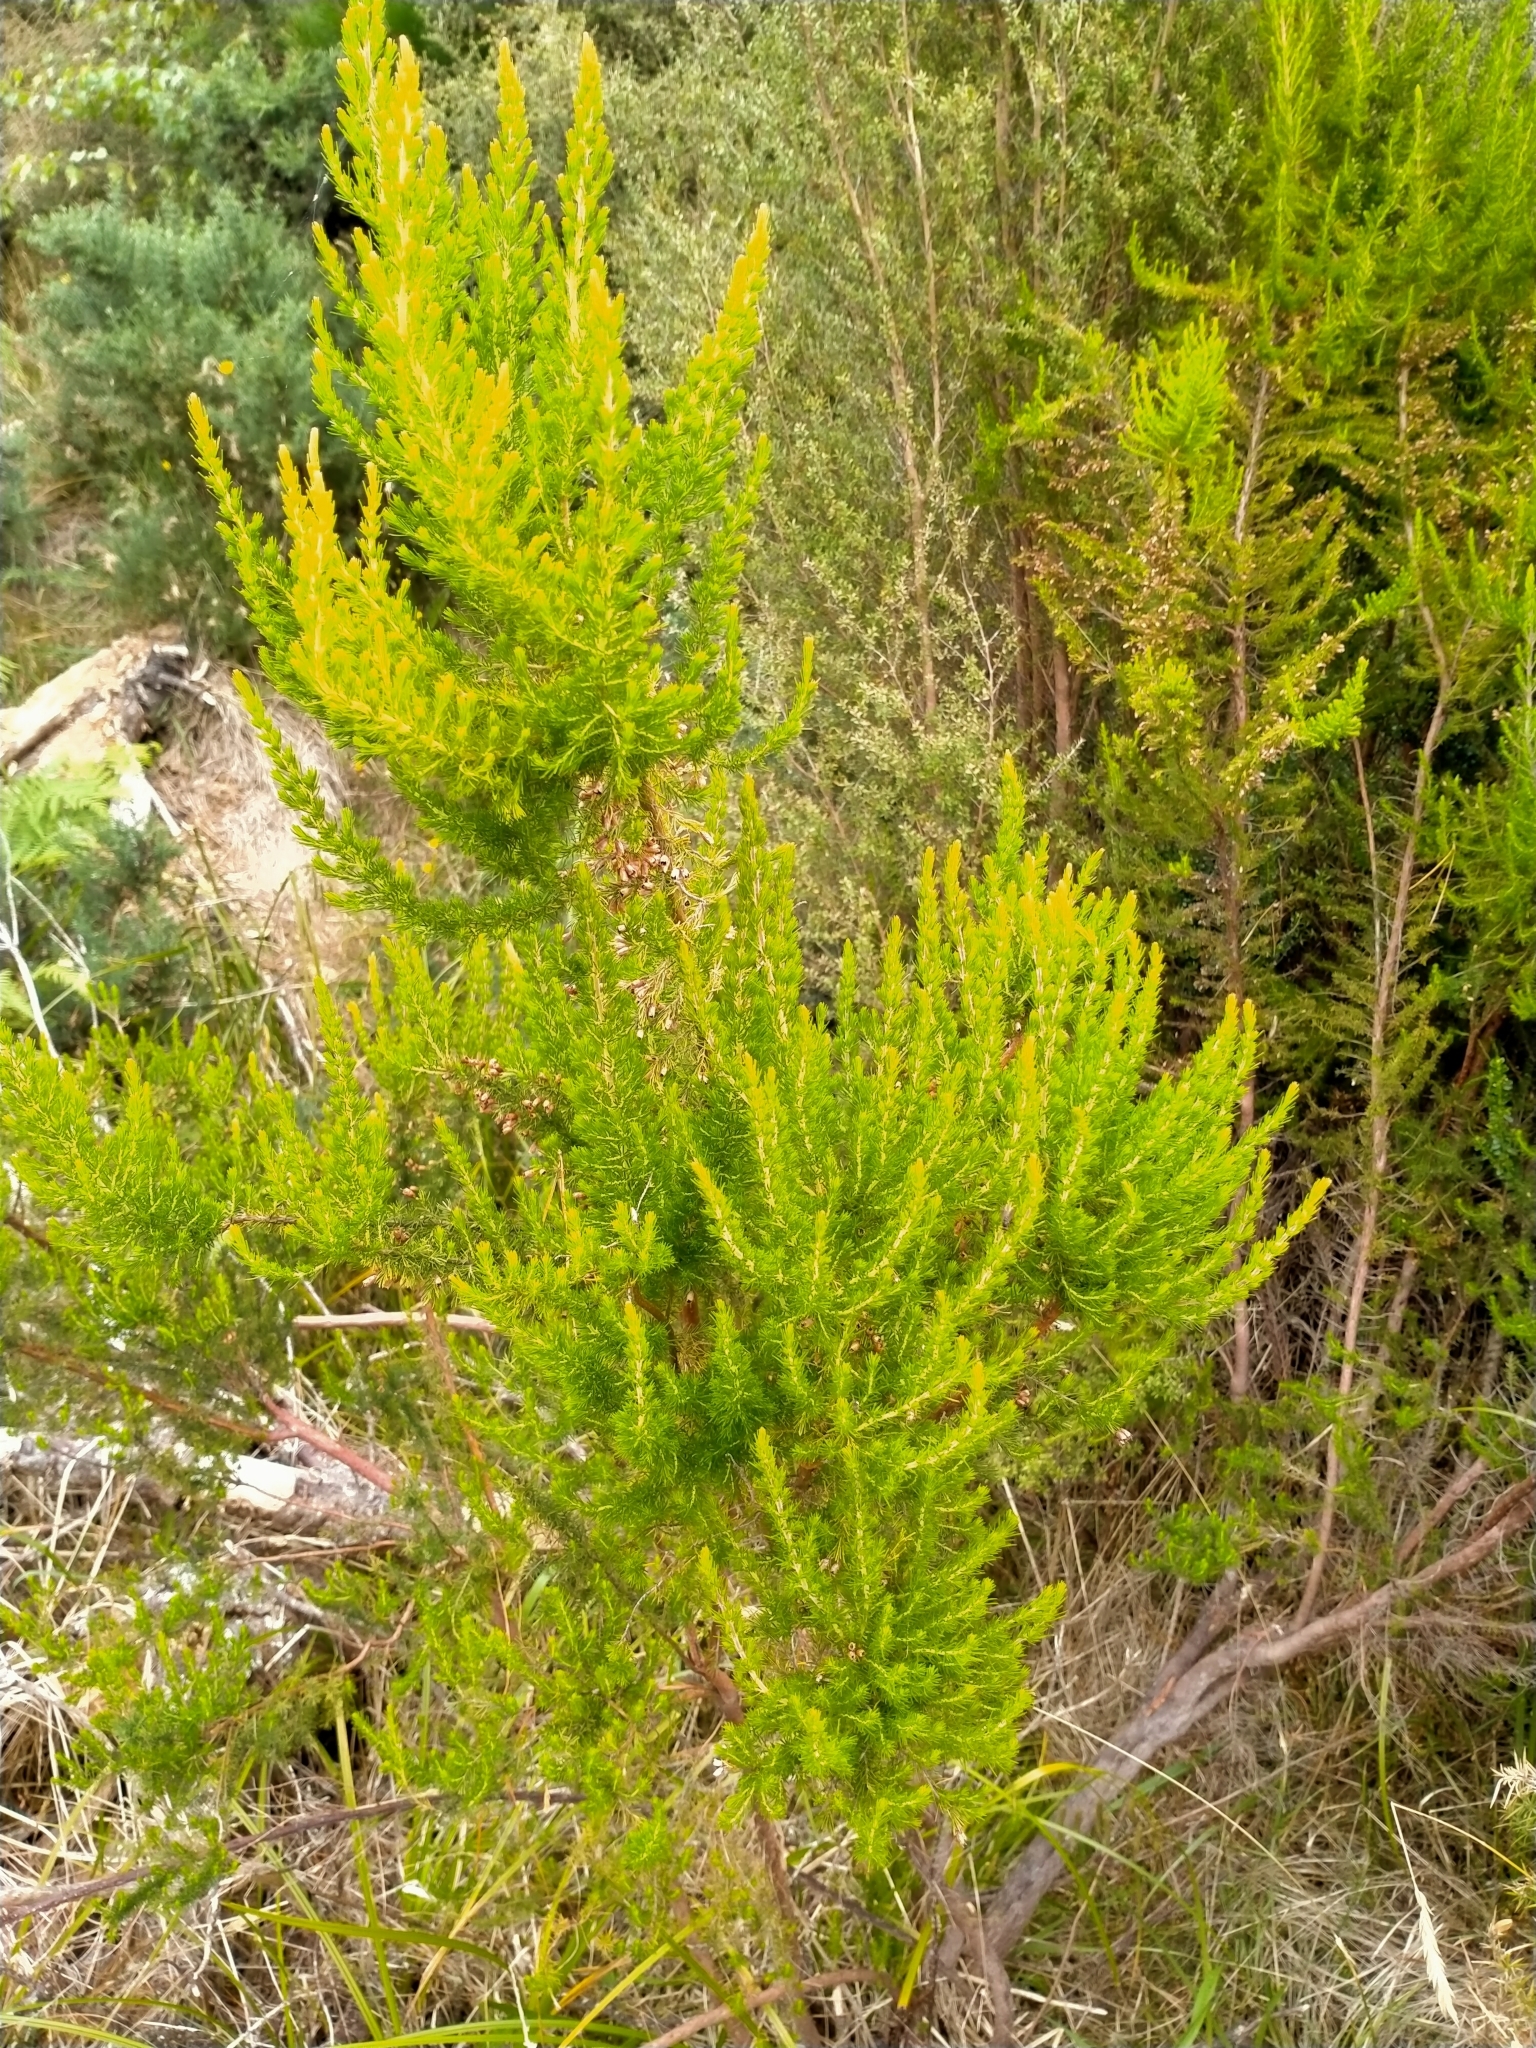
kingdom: Plantae
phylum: Tracheophyta
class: Magnoliopsida
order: Ericales
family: Ericaceae
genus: Erica
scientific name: Erica lusitanica
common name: Spanish heath
